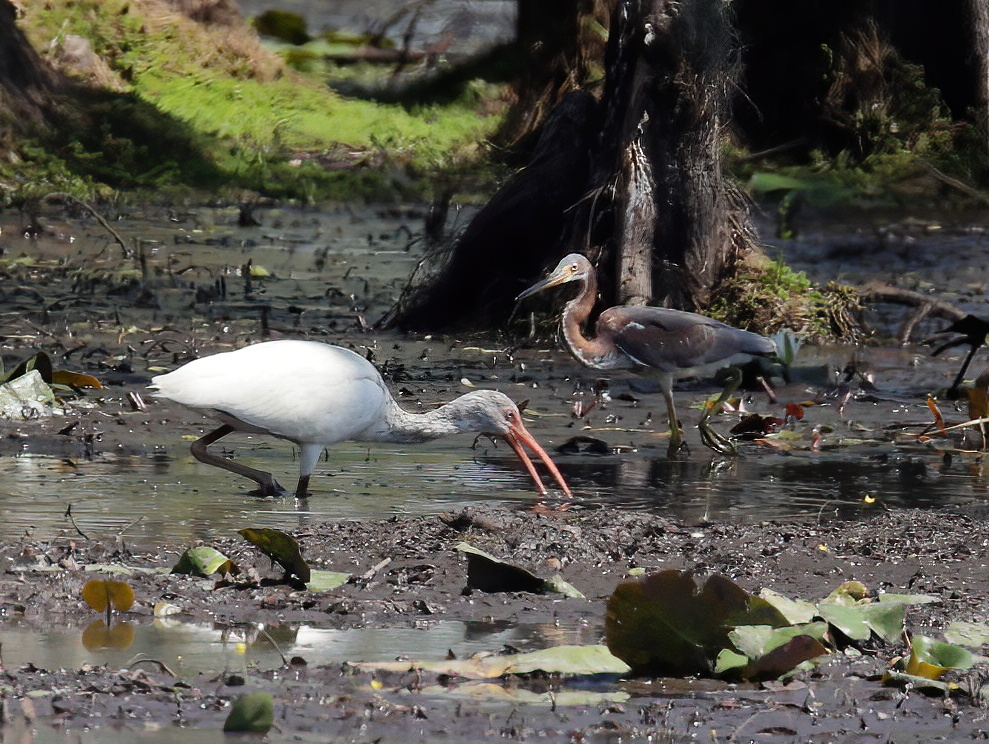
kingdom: Animalia
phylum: Chordata
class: Aves
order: Pelecaniformes
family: Threskiornithidae
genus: Eudocimus
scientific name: Eudocimus albus
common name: White ibis
